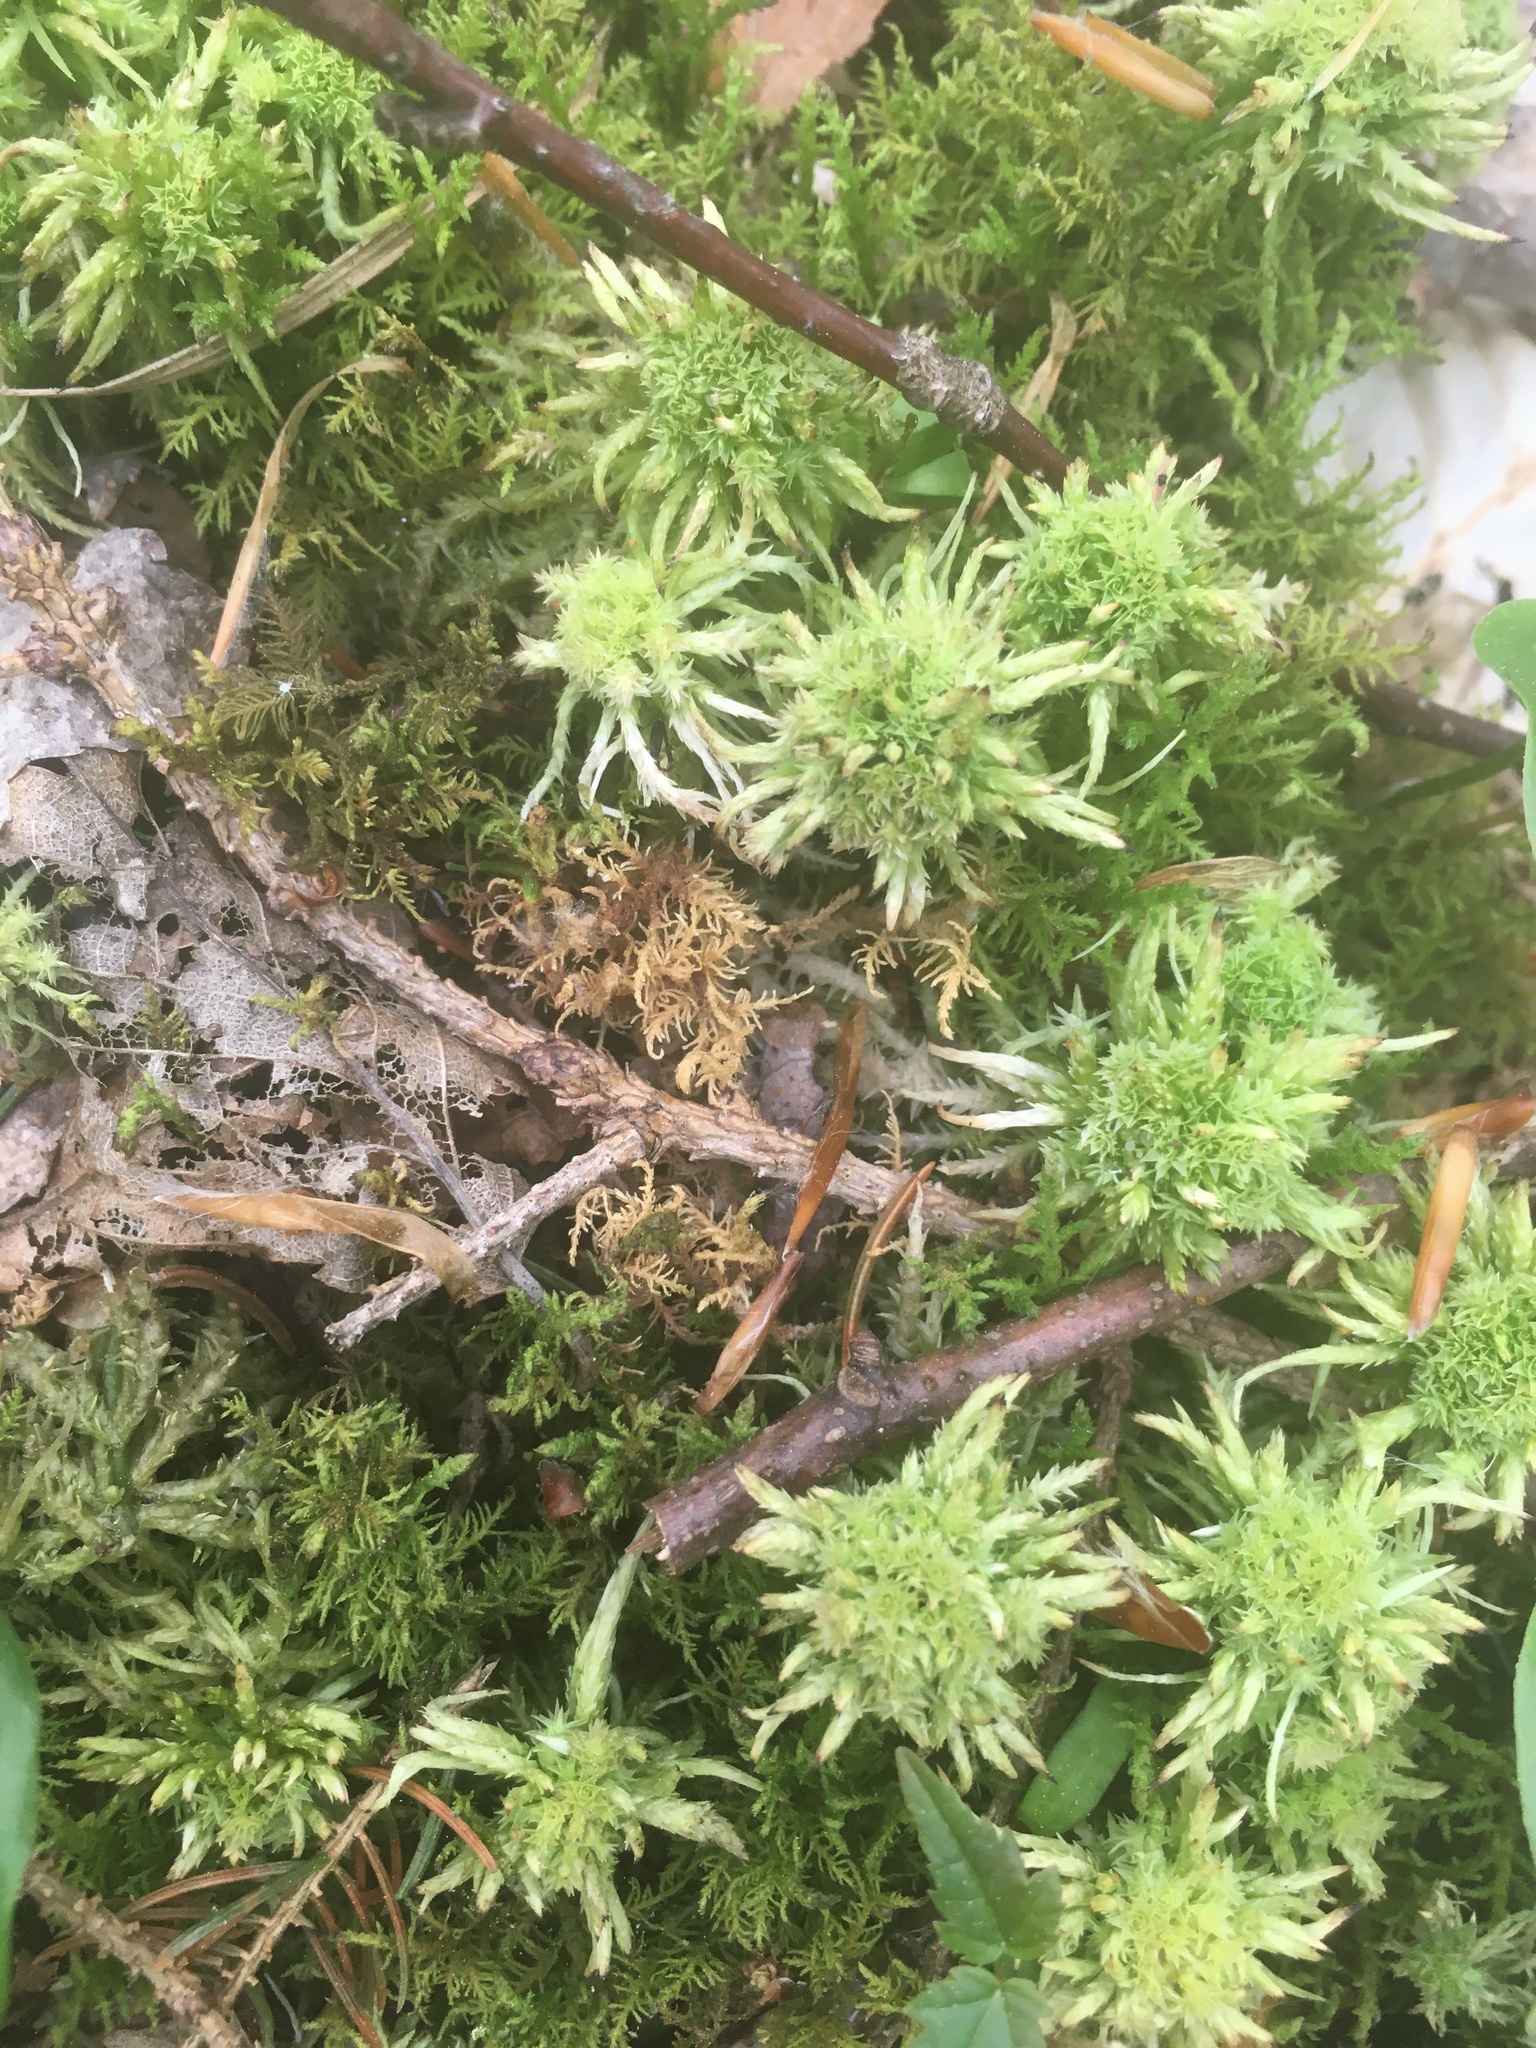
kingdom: Plantae
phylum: Bryophyta
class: Sphagnopsida
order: Sphagnales
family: Sphagnaceae
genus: Sphagnum
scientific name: Sphagnum squarrosum
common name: Shaggy peat moss
